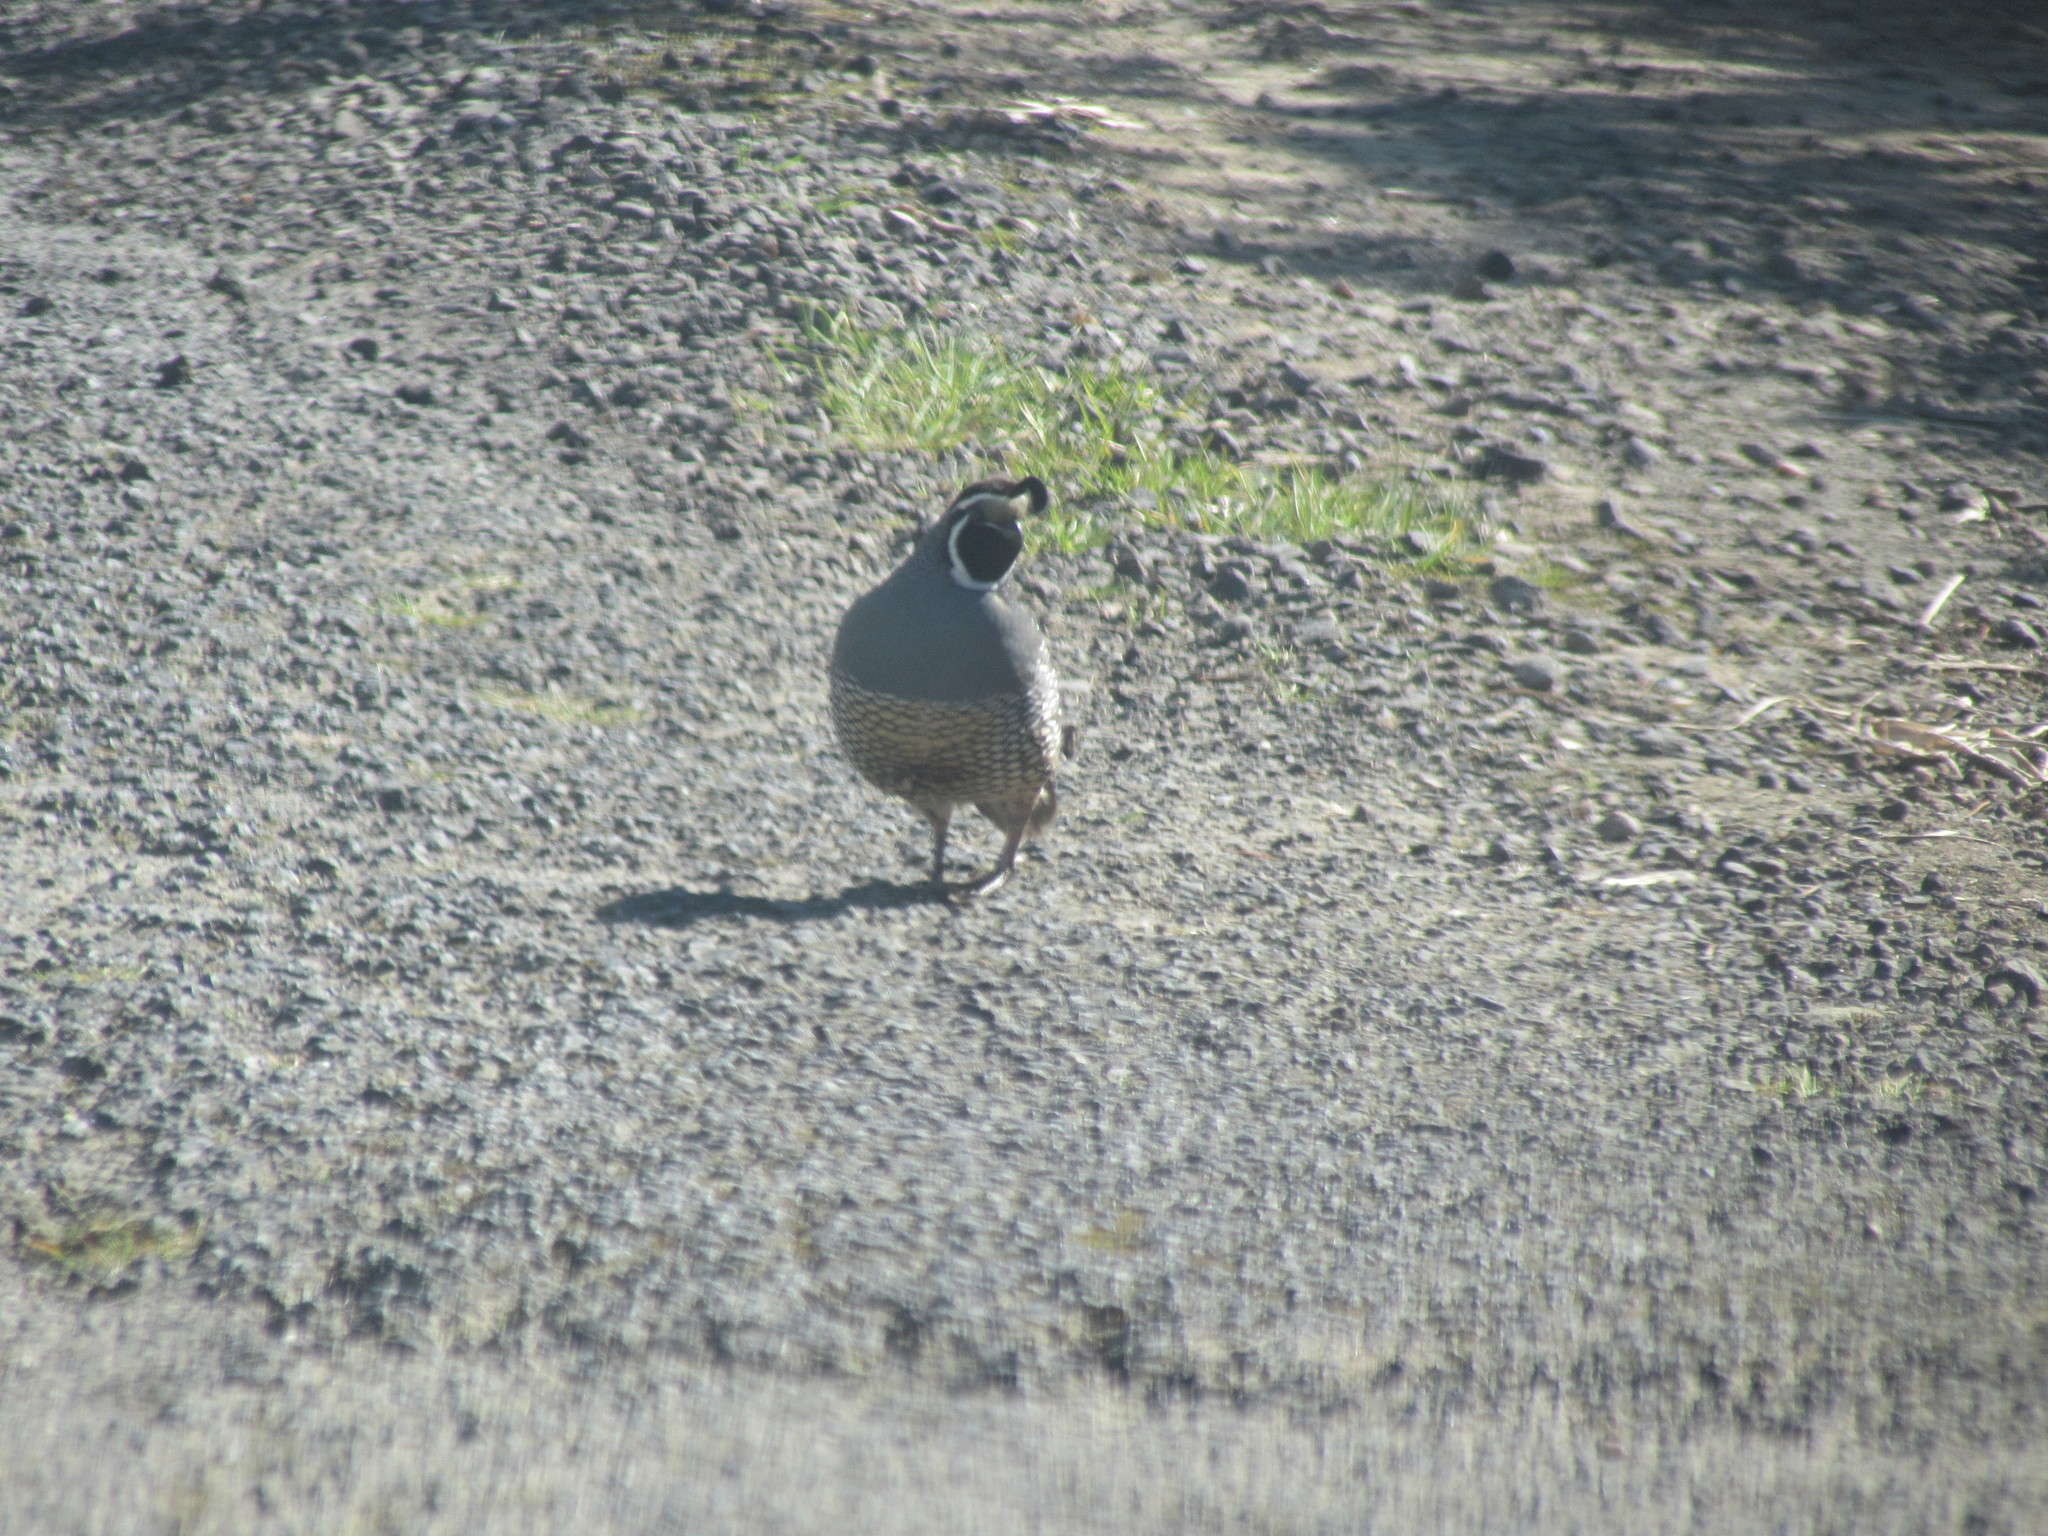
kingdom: Animalia
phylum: Chordata
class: Aves
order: Galliformes
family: Odontophoridae
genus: Callipepla
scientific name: Callipepla californica
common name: California quail
